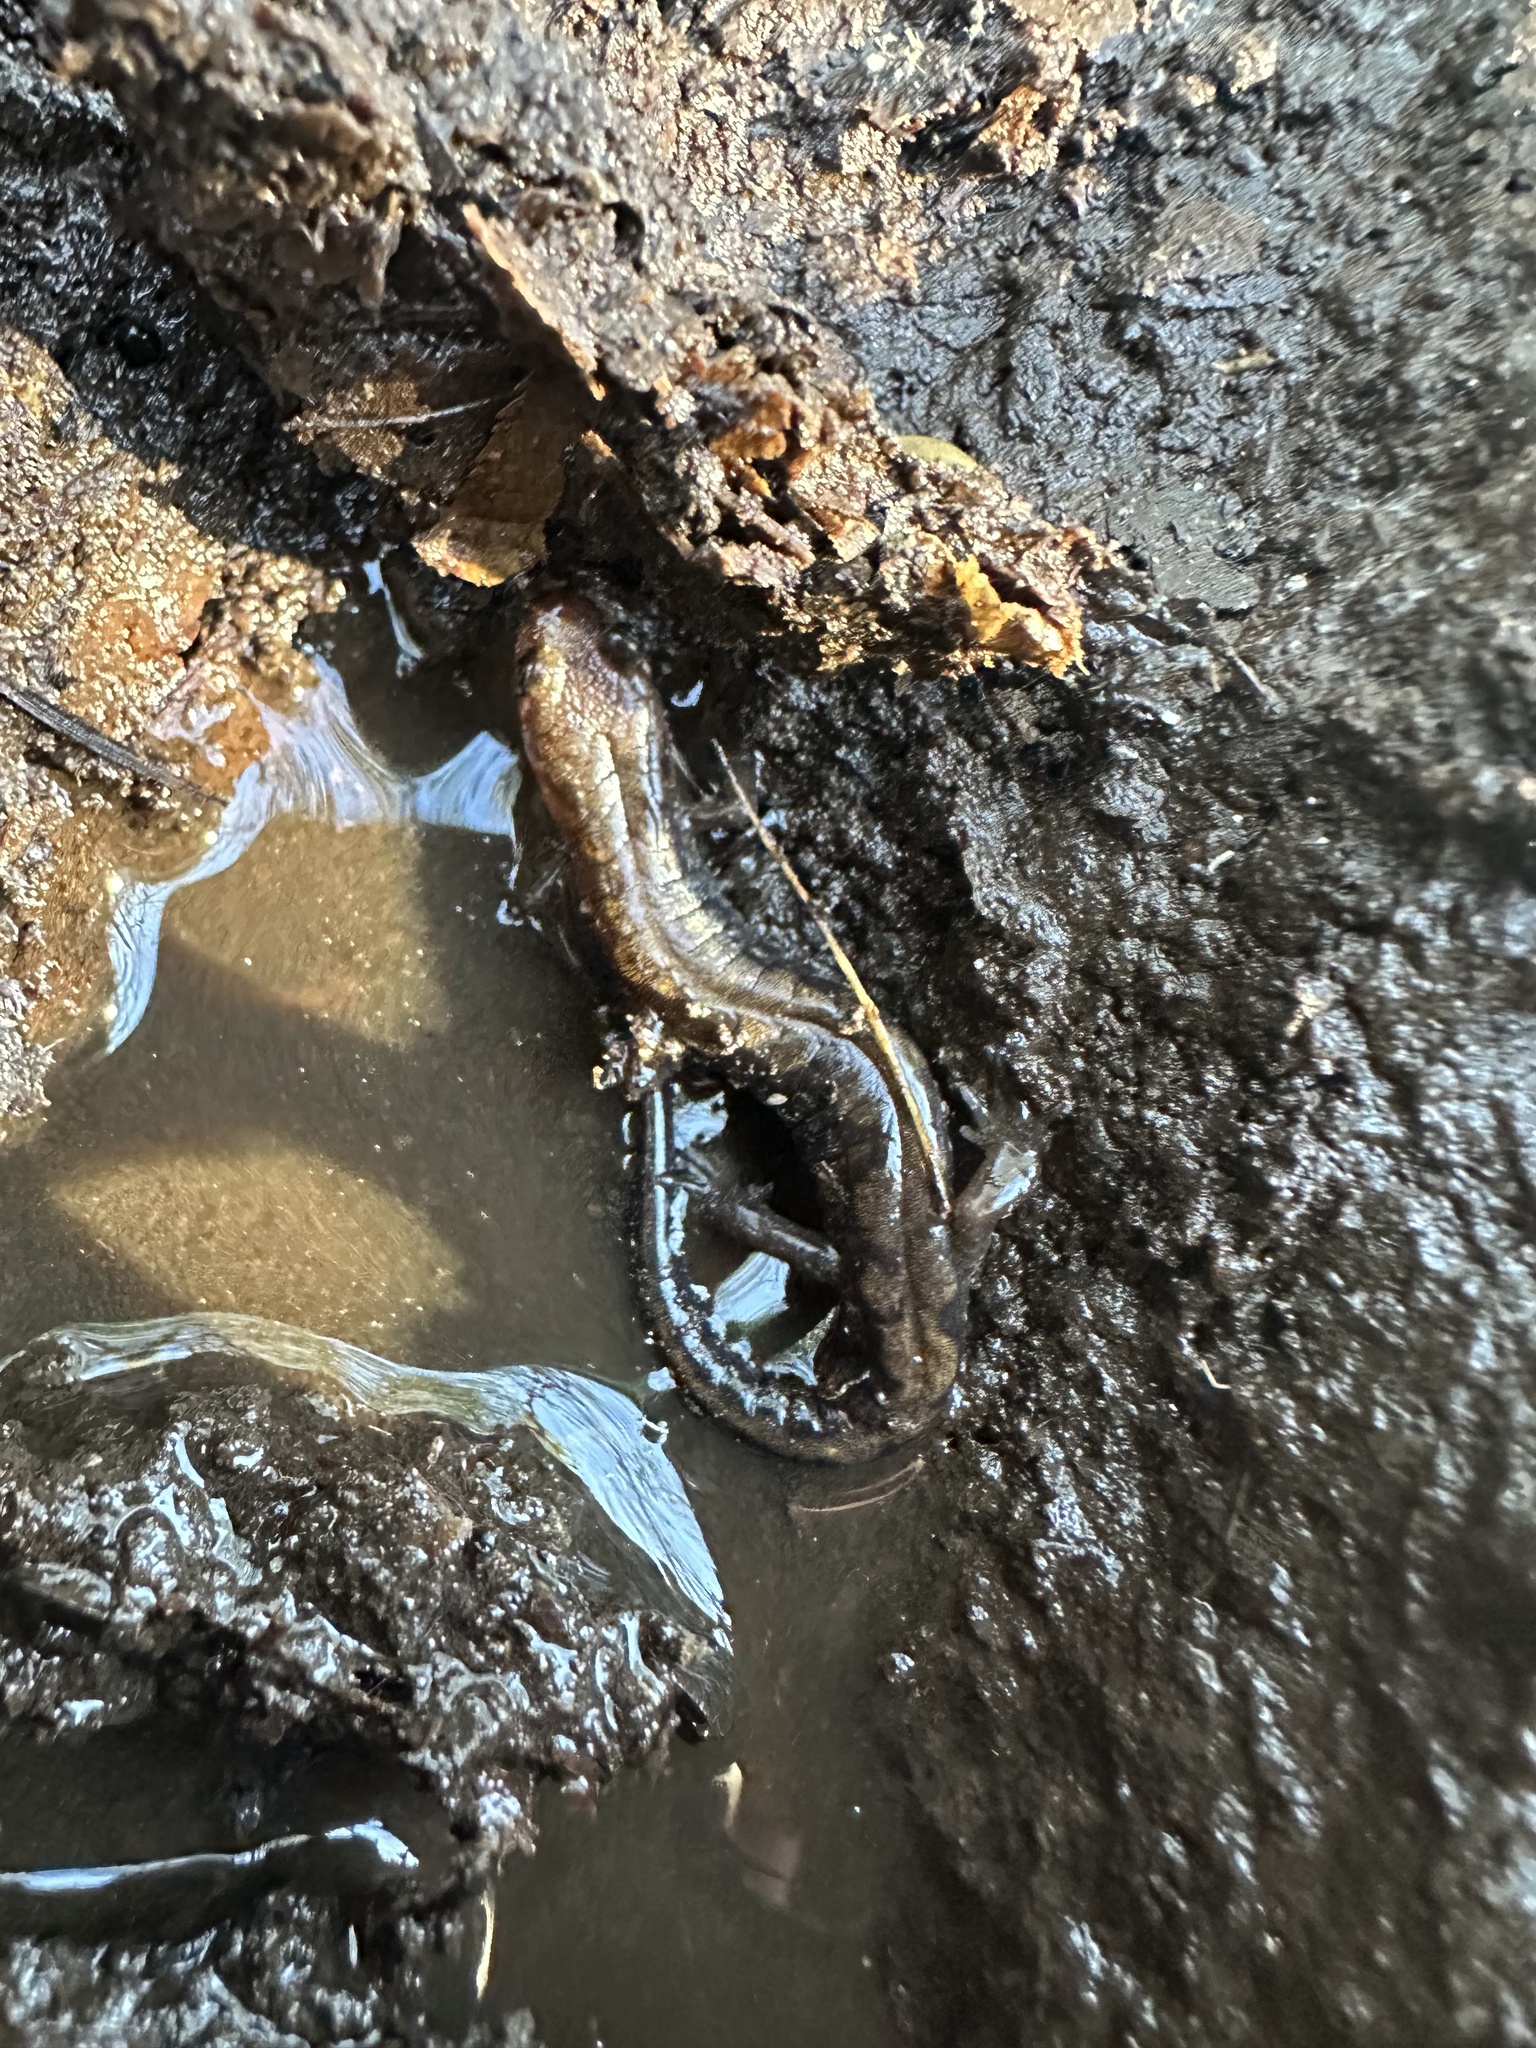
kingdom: Animalia
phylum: Chordata
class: Amphibia
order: Caudata
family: Plethodontidae
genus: Desmognathus
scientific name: Desmognathus carolinensis
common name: Carolina mountain dusky salamander
